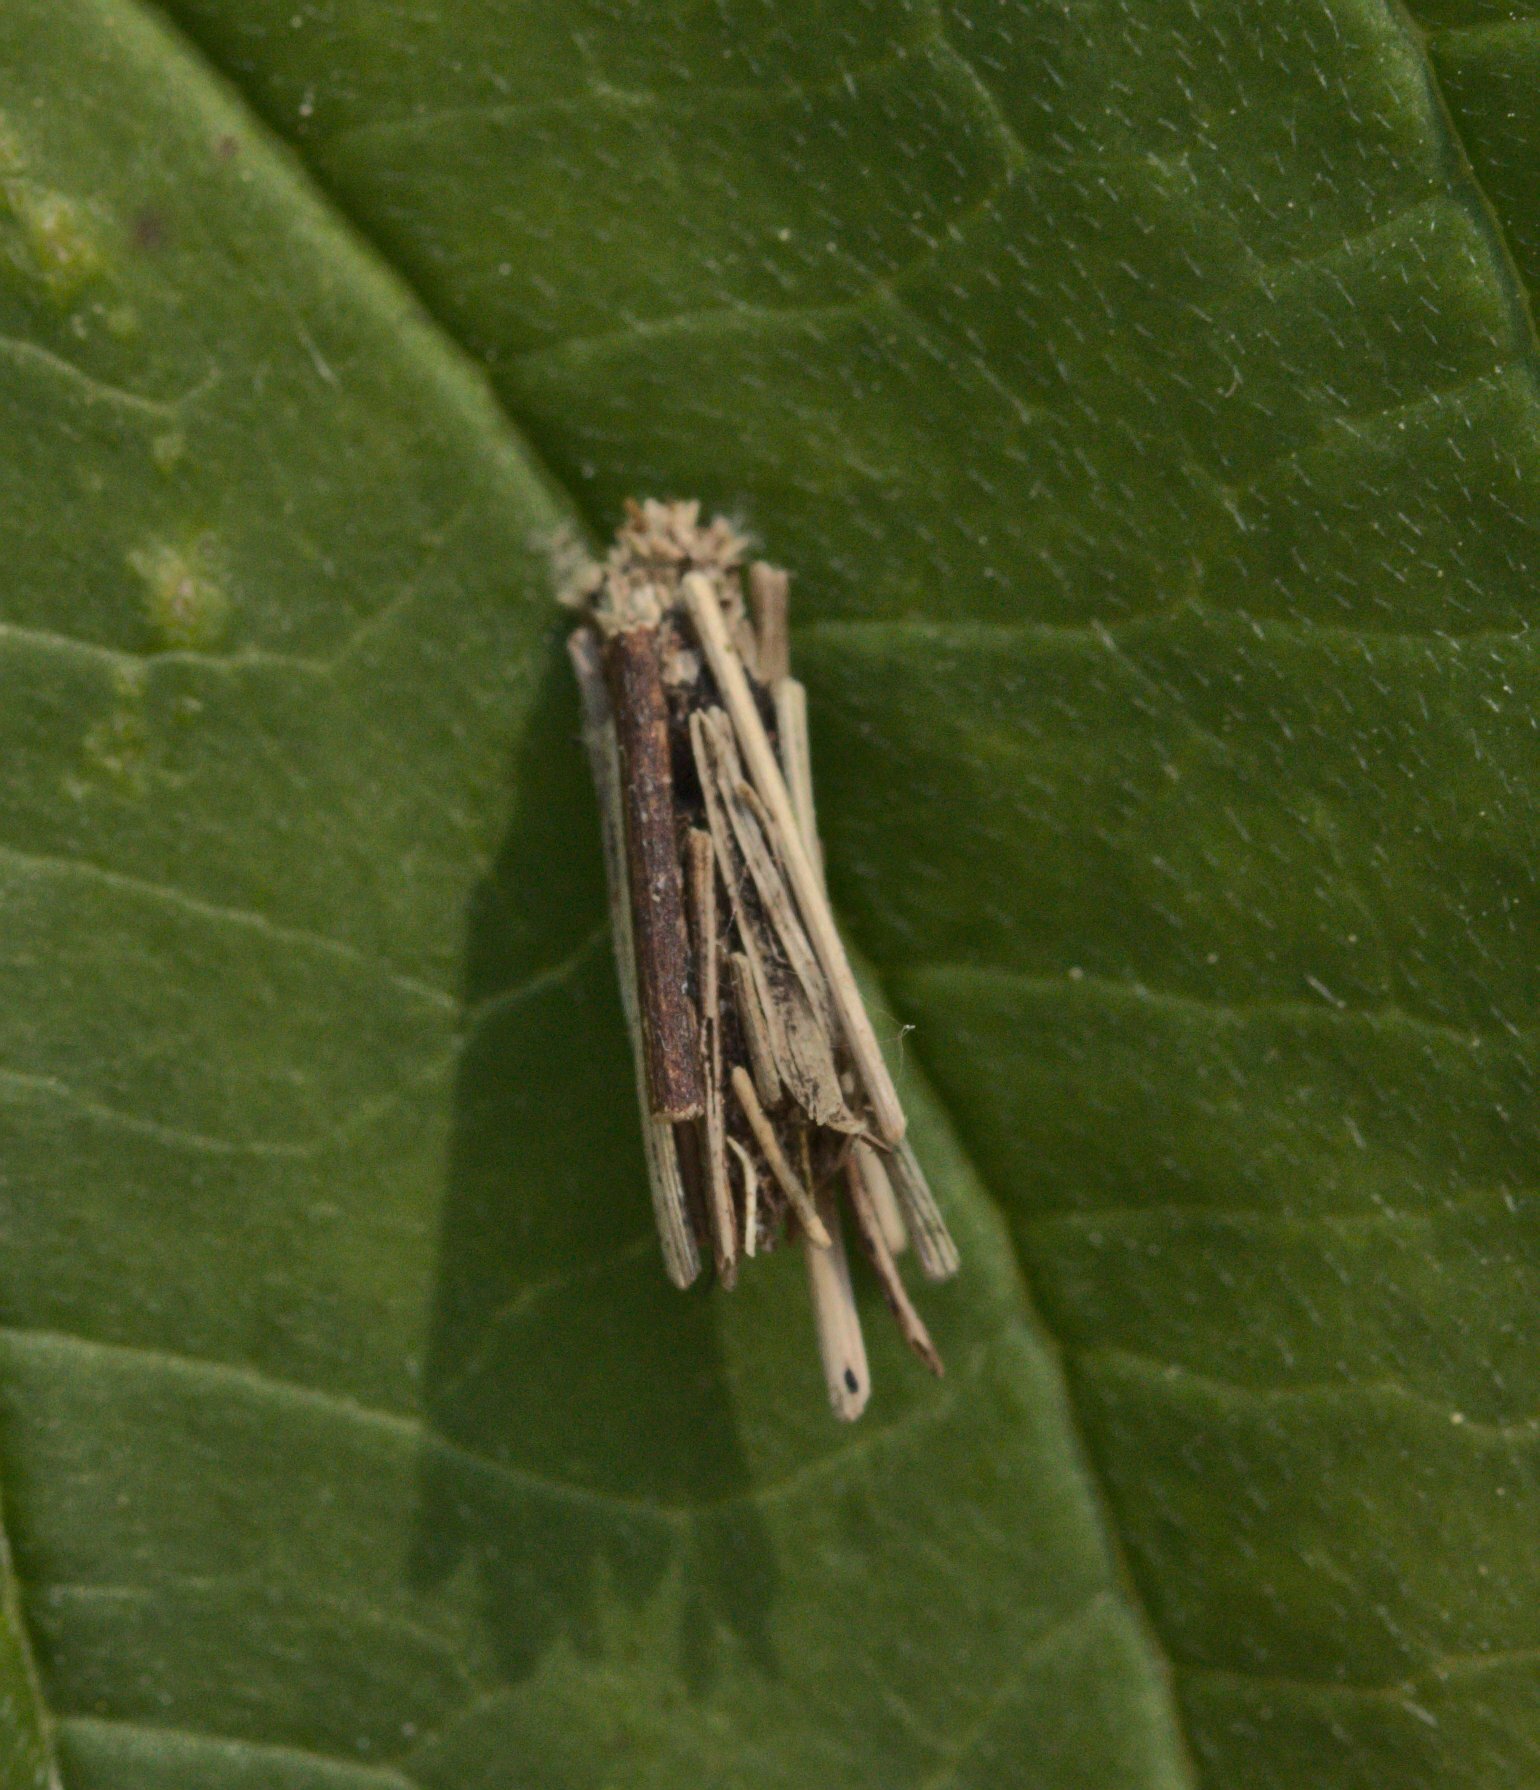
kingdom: Animalia
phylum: Arthropoda
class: Insecta
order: Lepidoptera
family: Psychidae
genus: Psyche
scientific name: Psyche casta
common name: Common sweep
